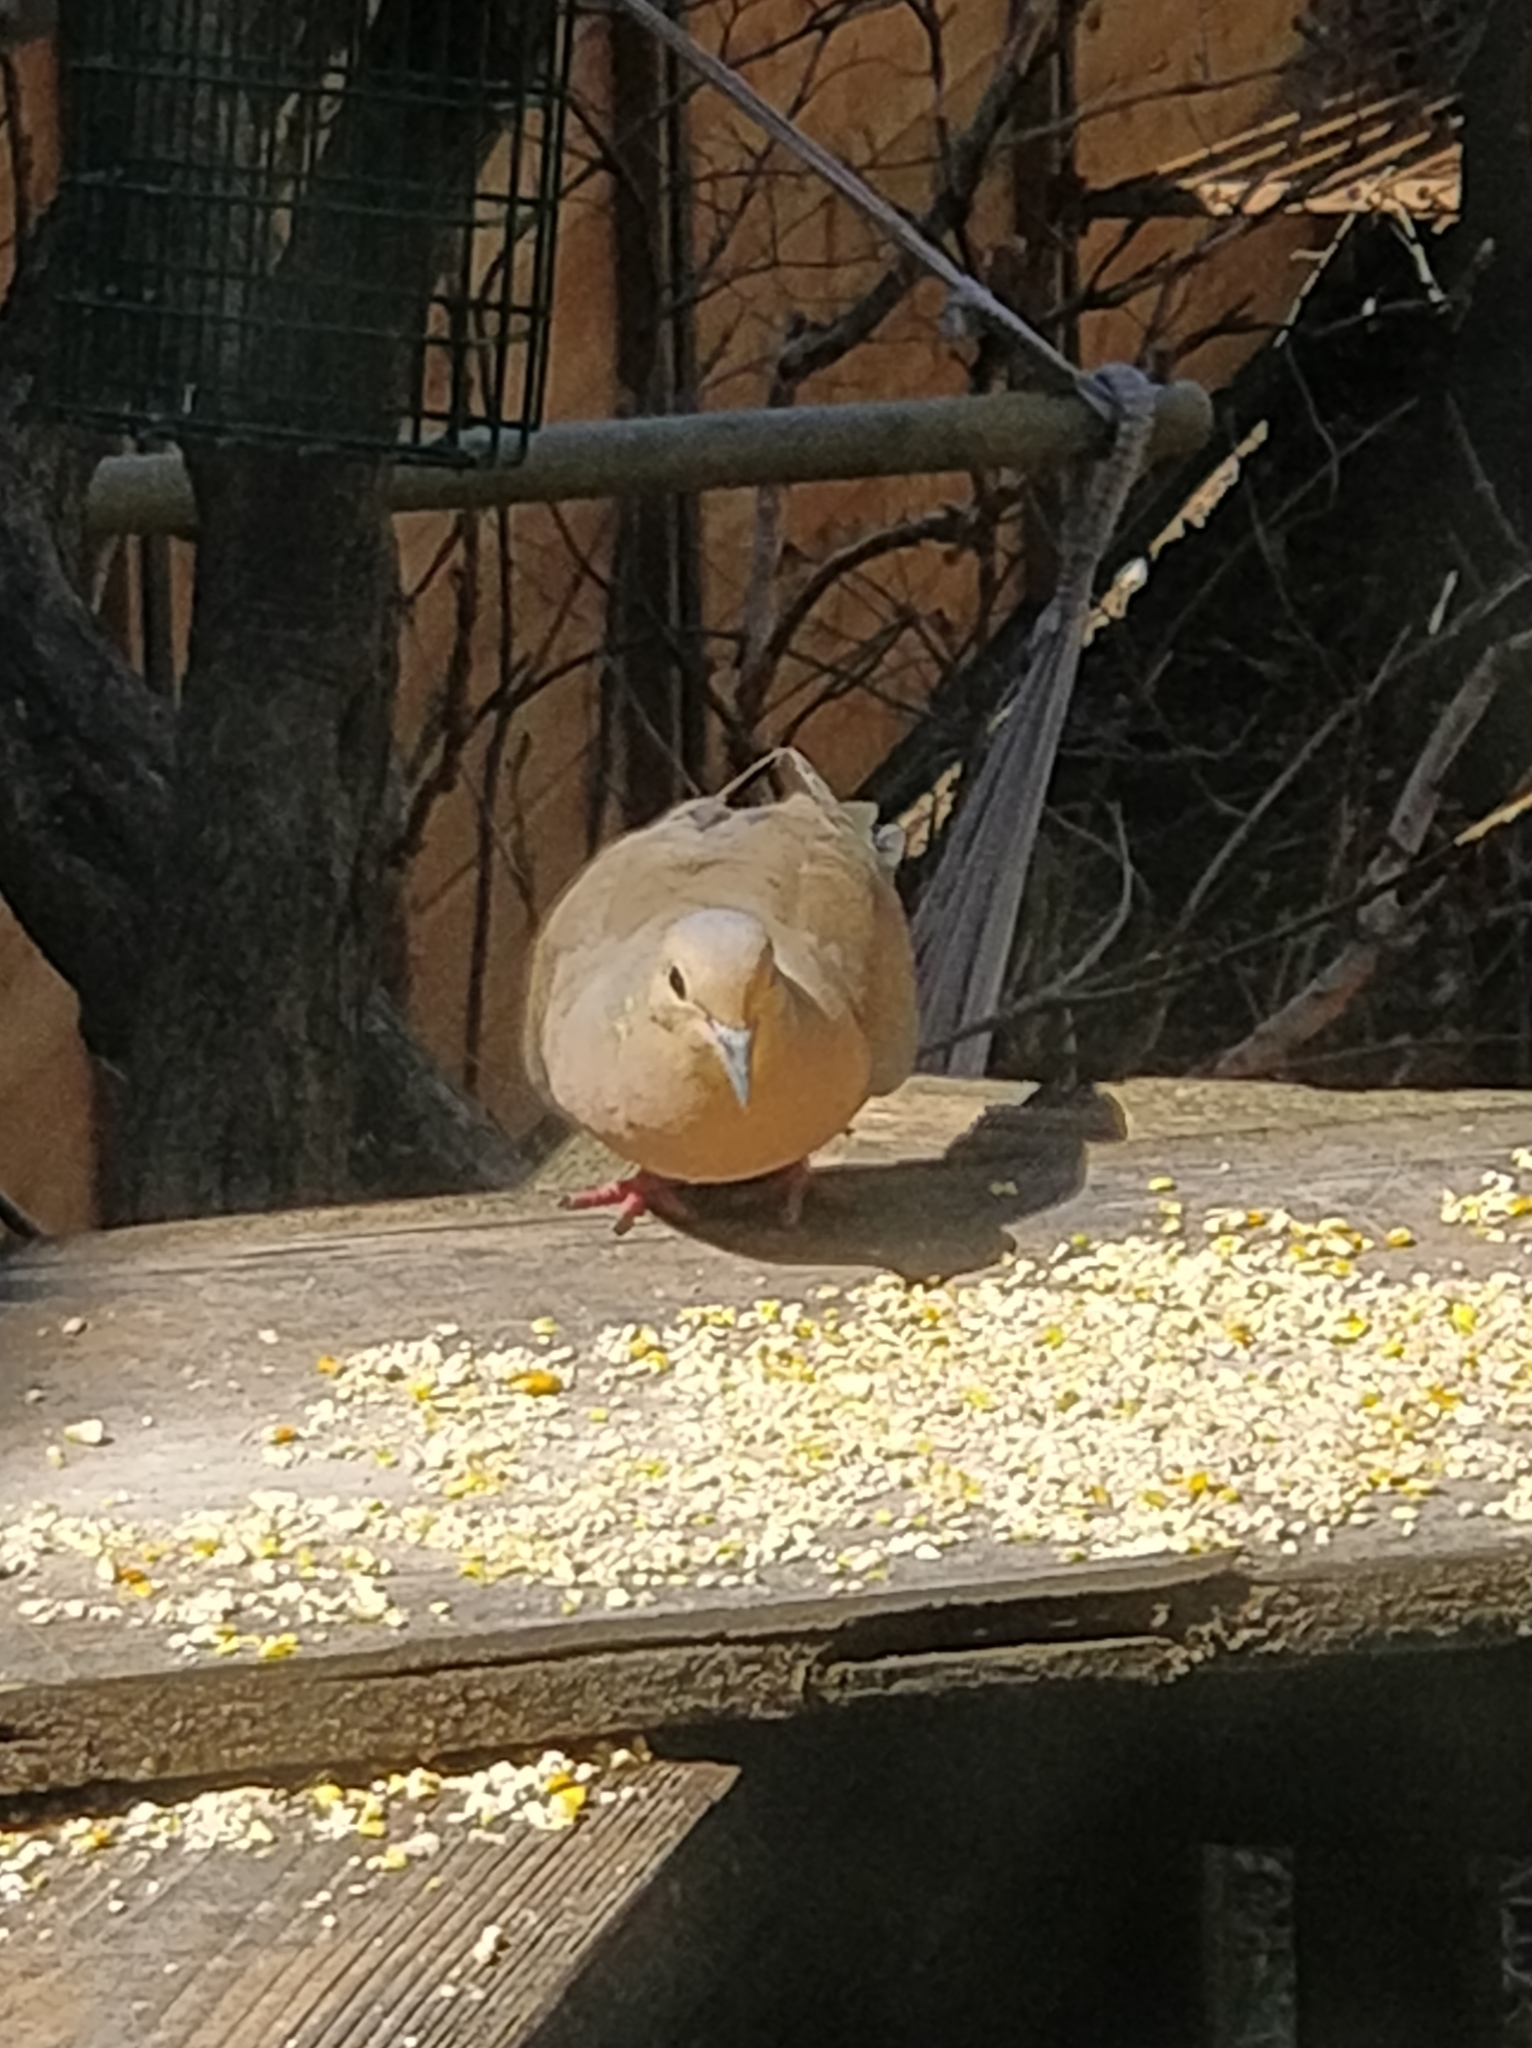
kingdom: Animalia
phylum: Chordata
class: Aves
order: Columbiformes
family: Columbidae
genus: Zenaida
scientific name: Zenaida macroura
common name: Mourning dove
